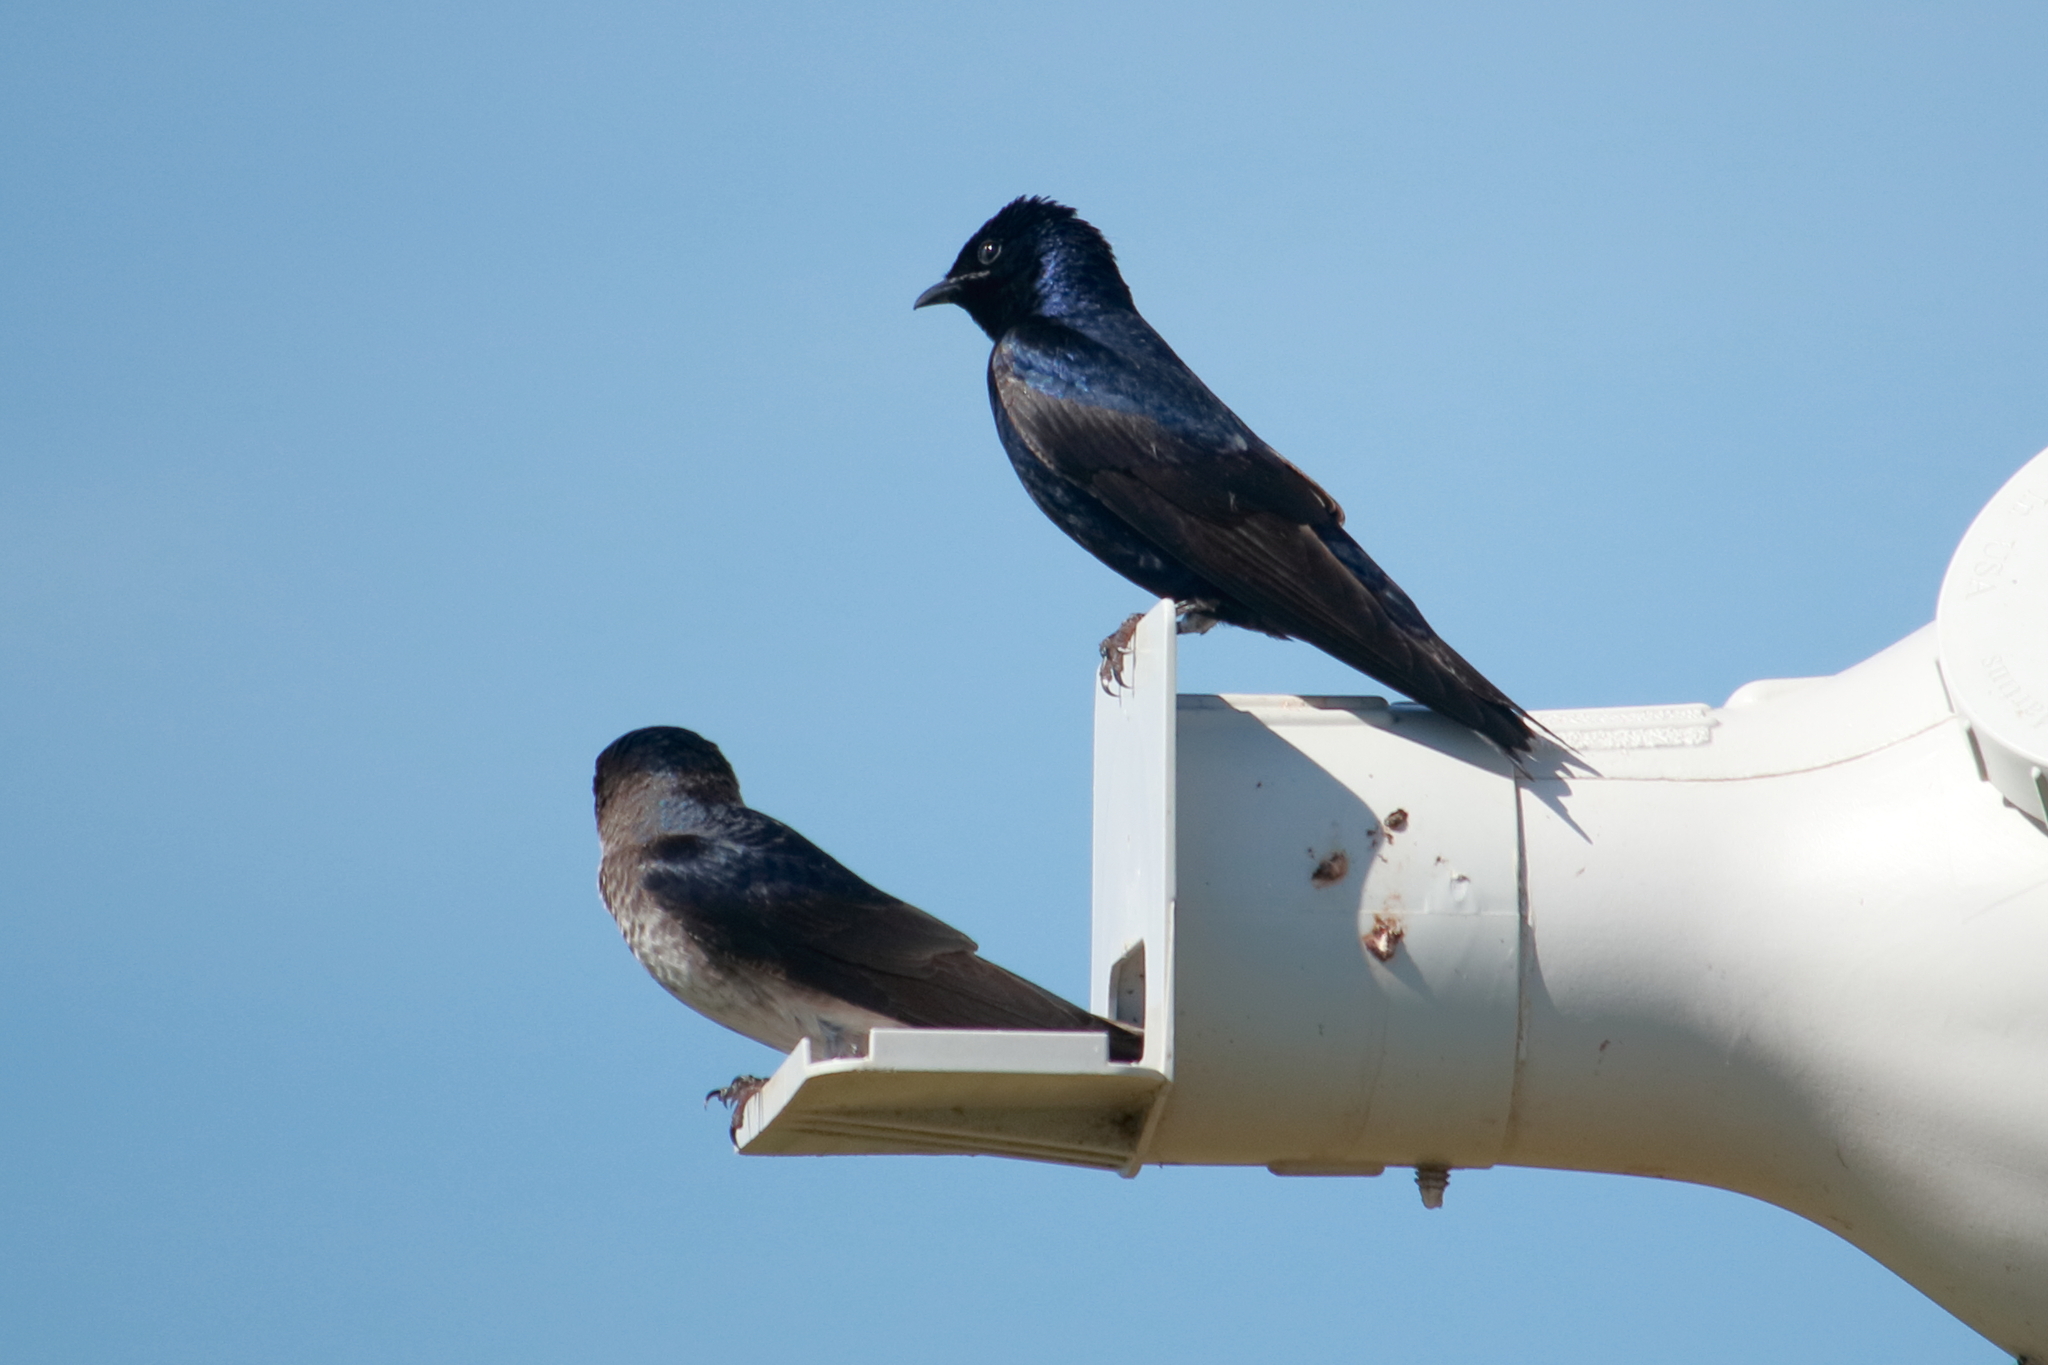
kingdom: Animalia
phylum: Chordata
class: Aves
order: Passeriformes
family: Hirundinidae
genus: Progne
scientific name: Progne subis
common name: Purple martin
